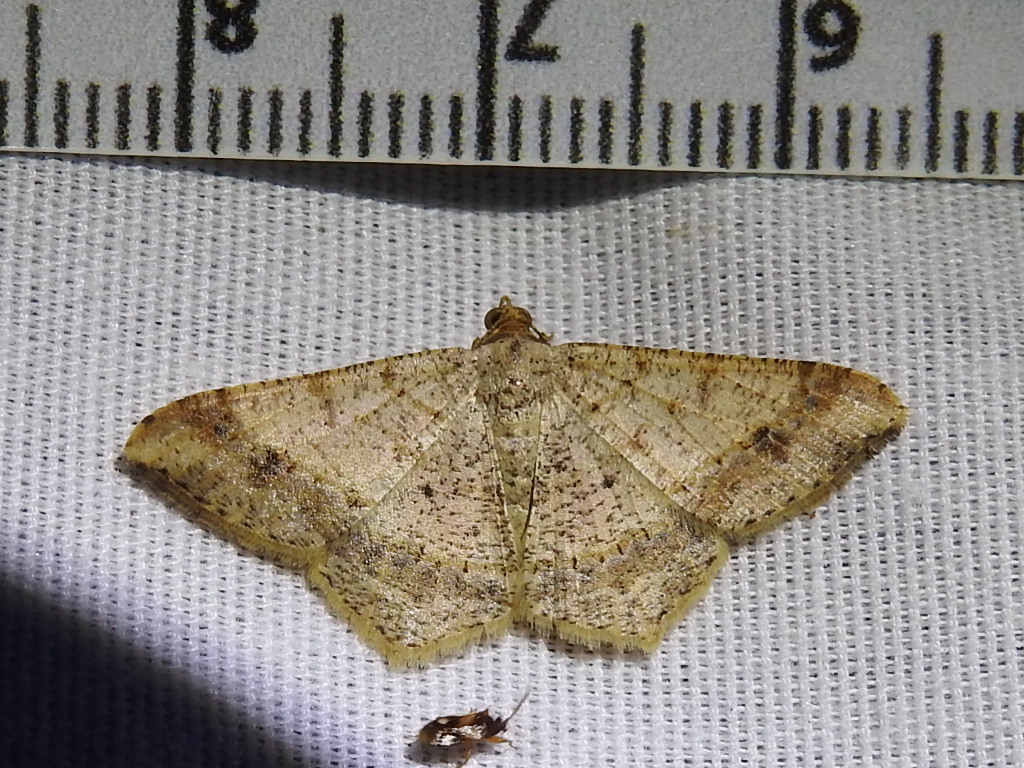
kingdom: Animalia
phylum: Arthropoda
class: Insecta
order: Lepidoptera
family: Geometridae
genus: Macaria
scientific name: Macaria abydata
